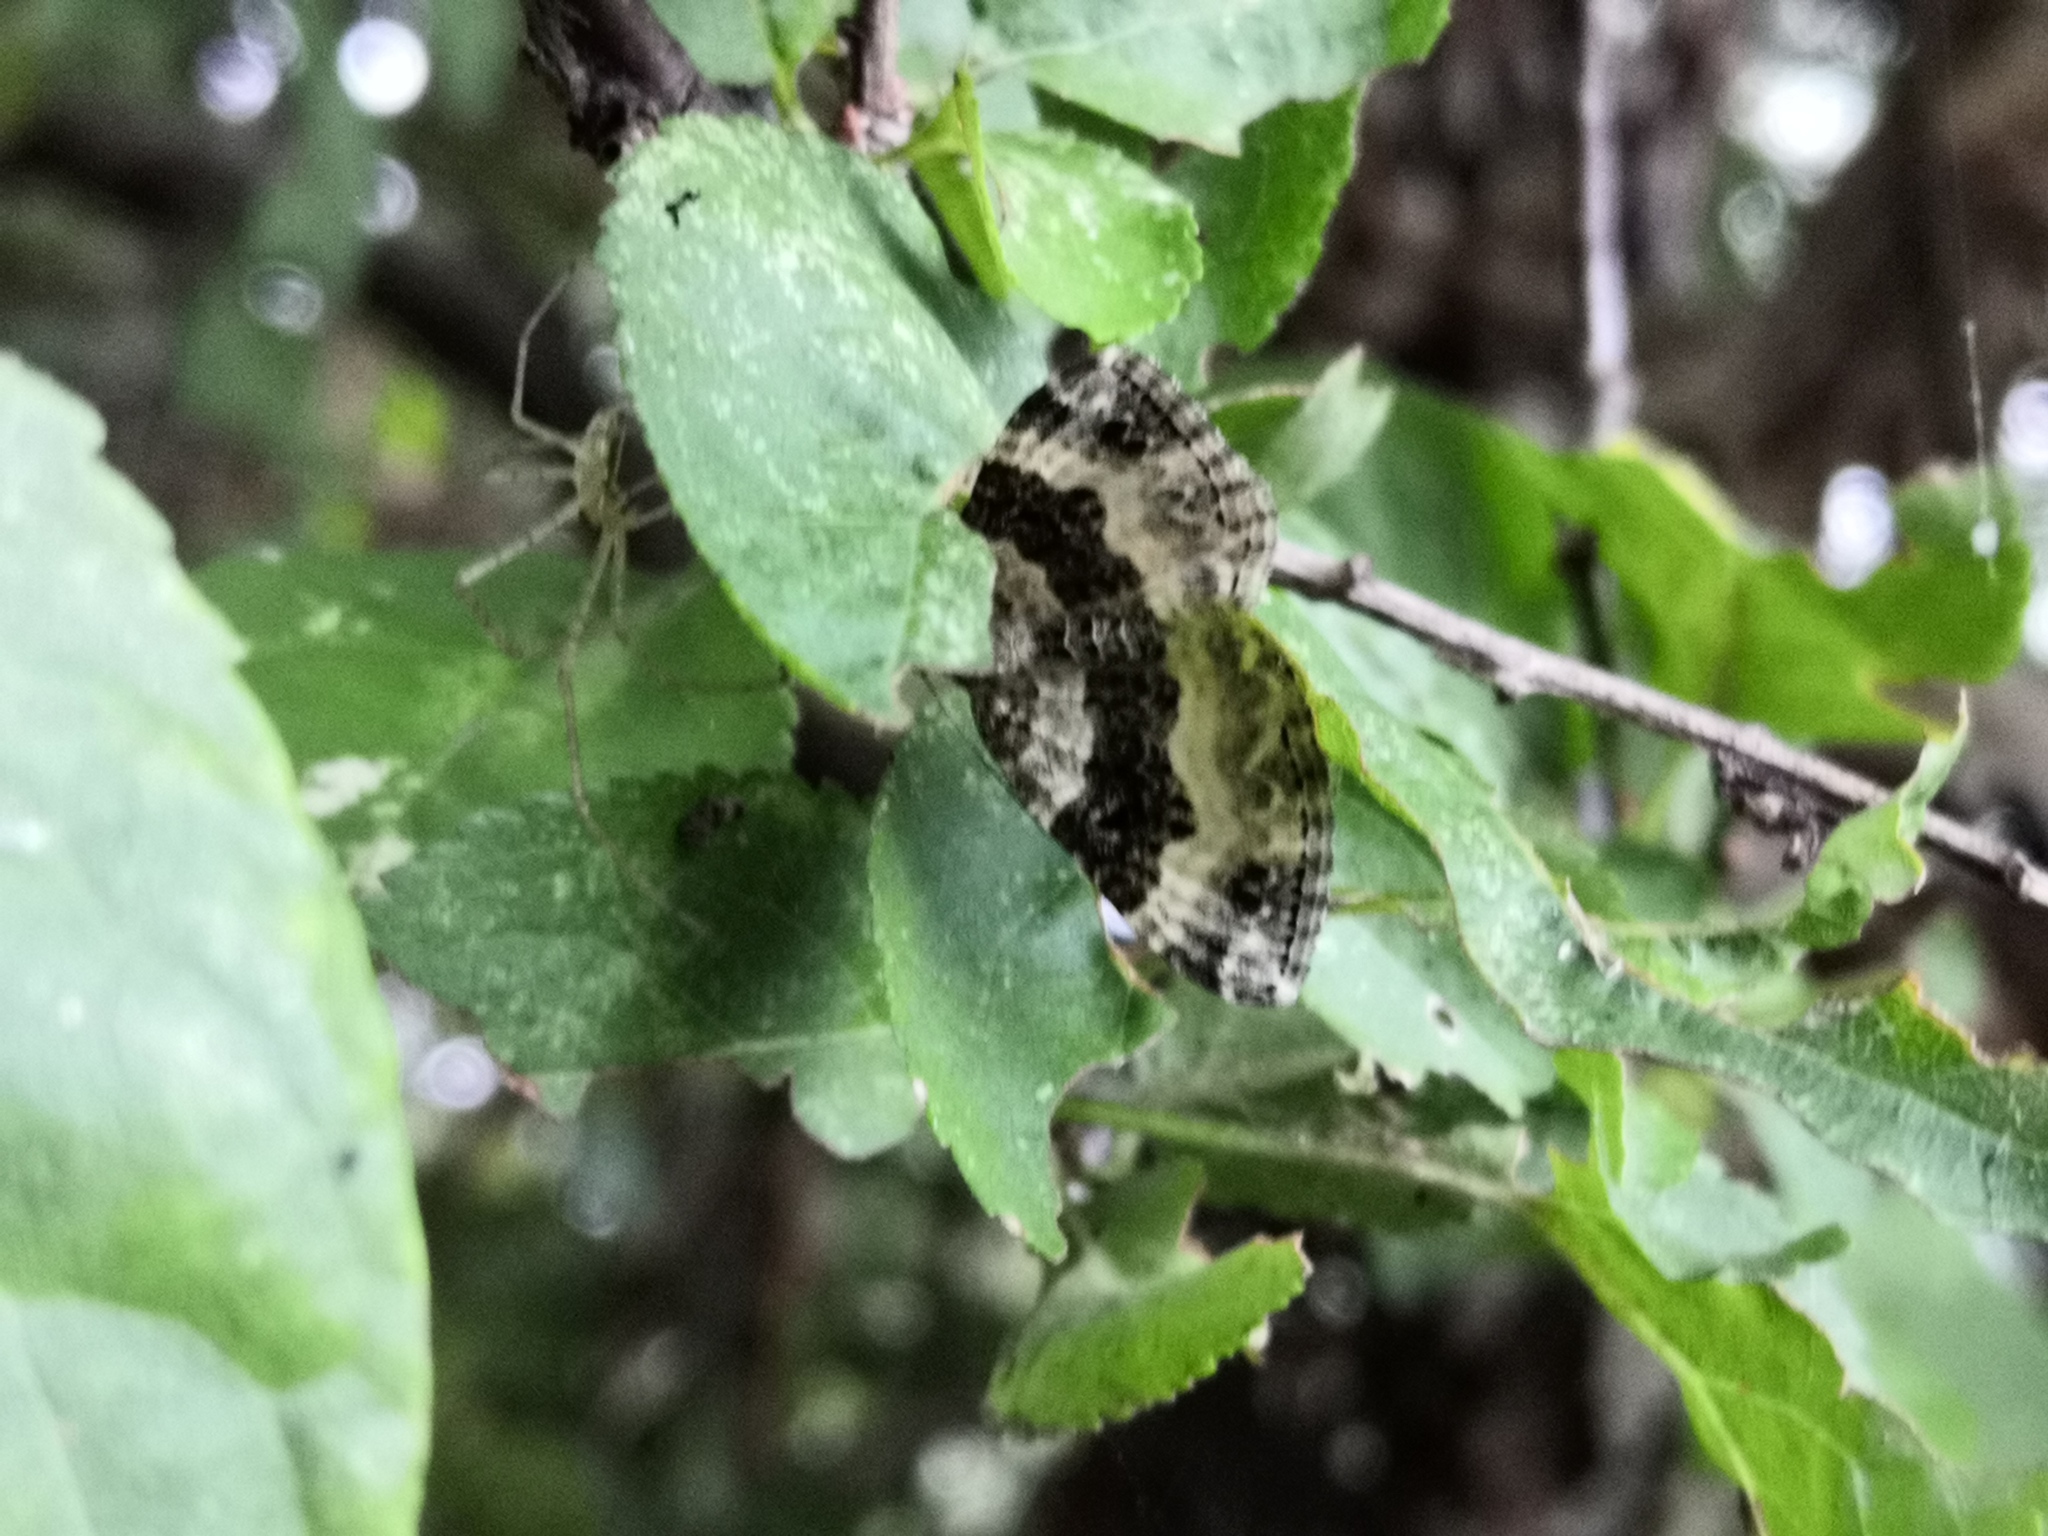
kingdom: Animalia
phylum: Arthropoda
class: Insecta
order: Lepidoptera
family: Geometridae
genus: Epirrhoe
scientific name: Epirrhoe alternata
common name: Common carpet
